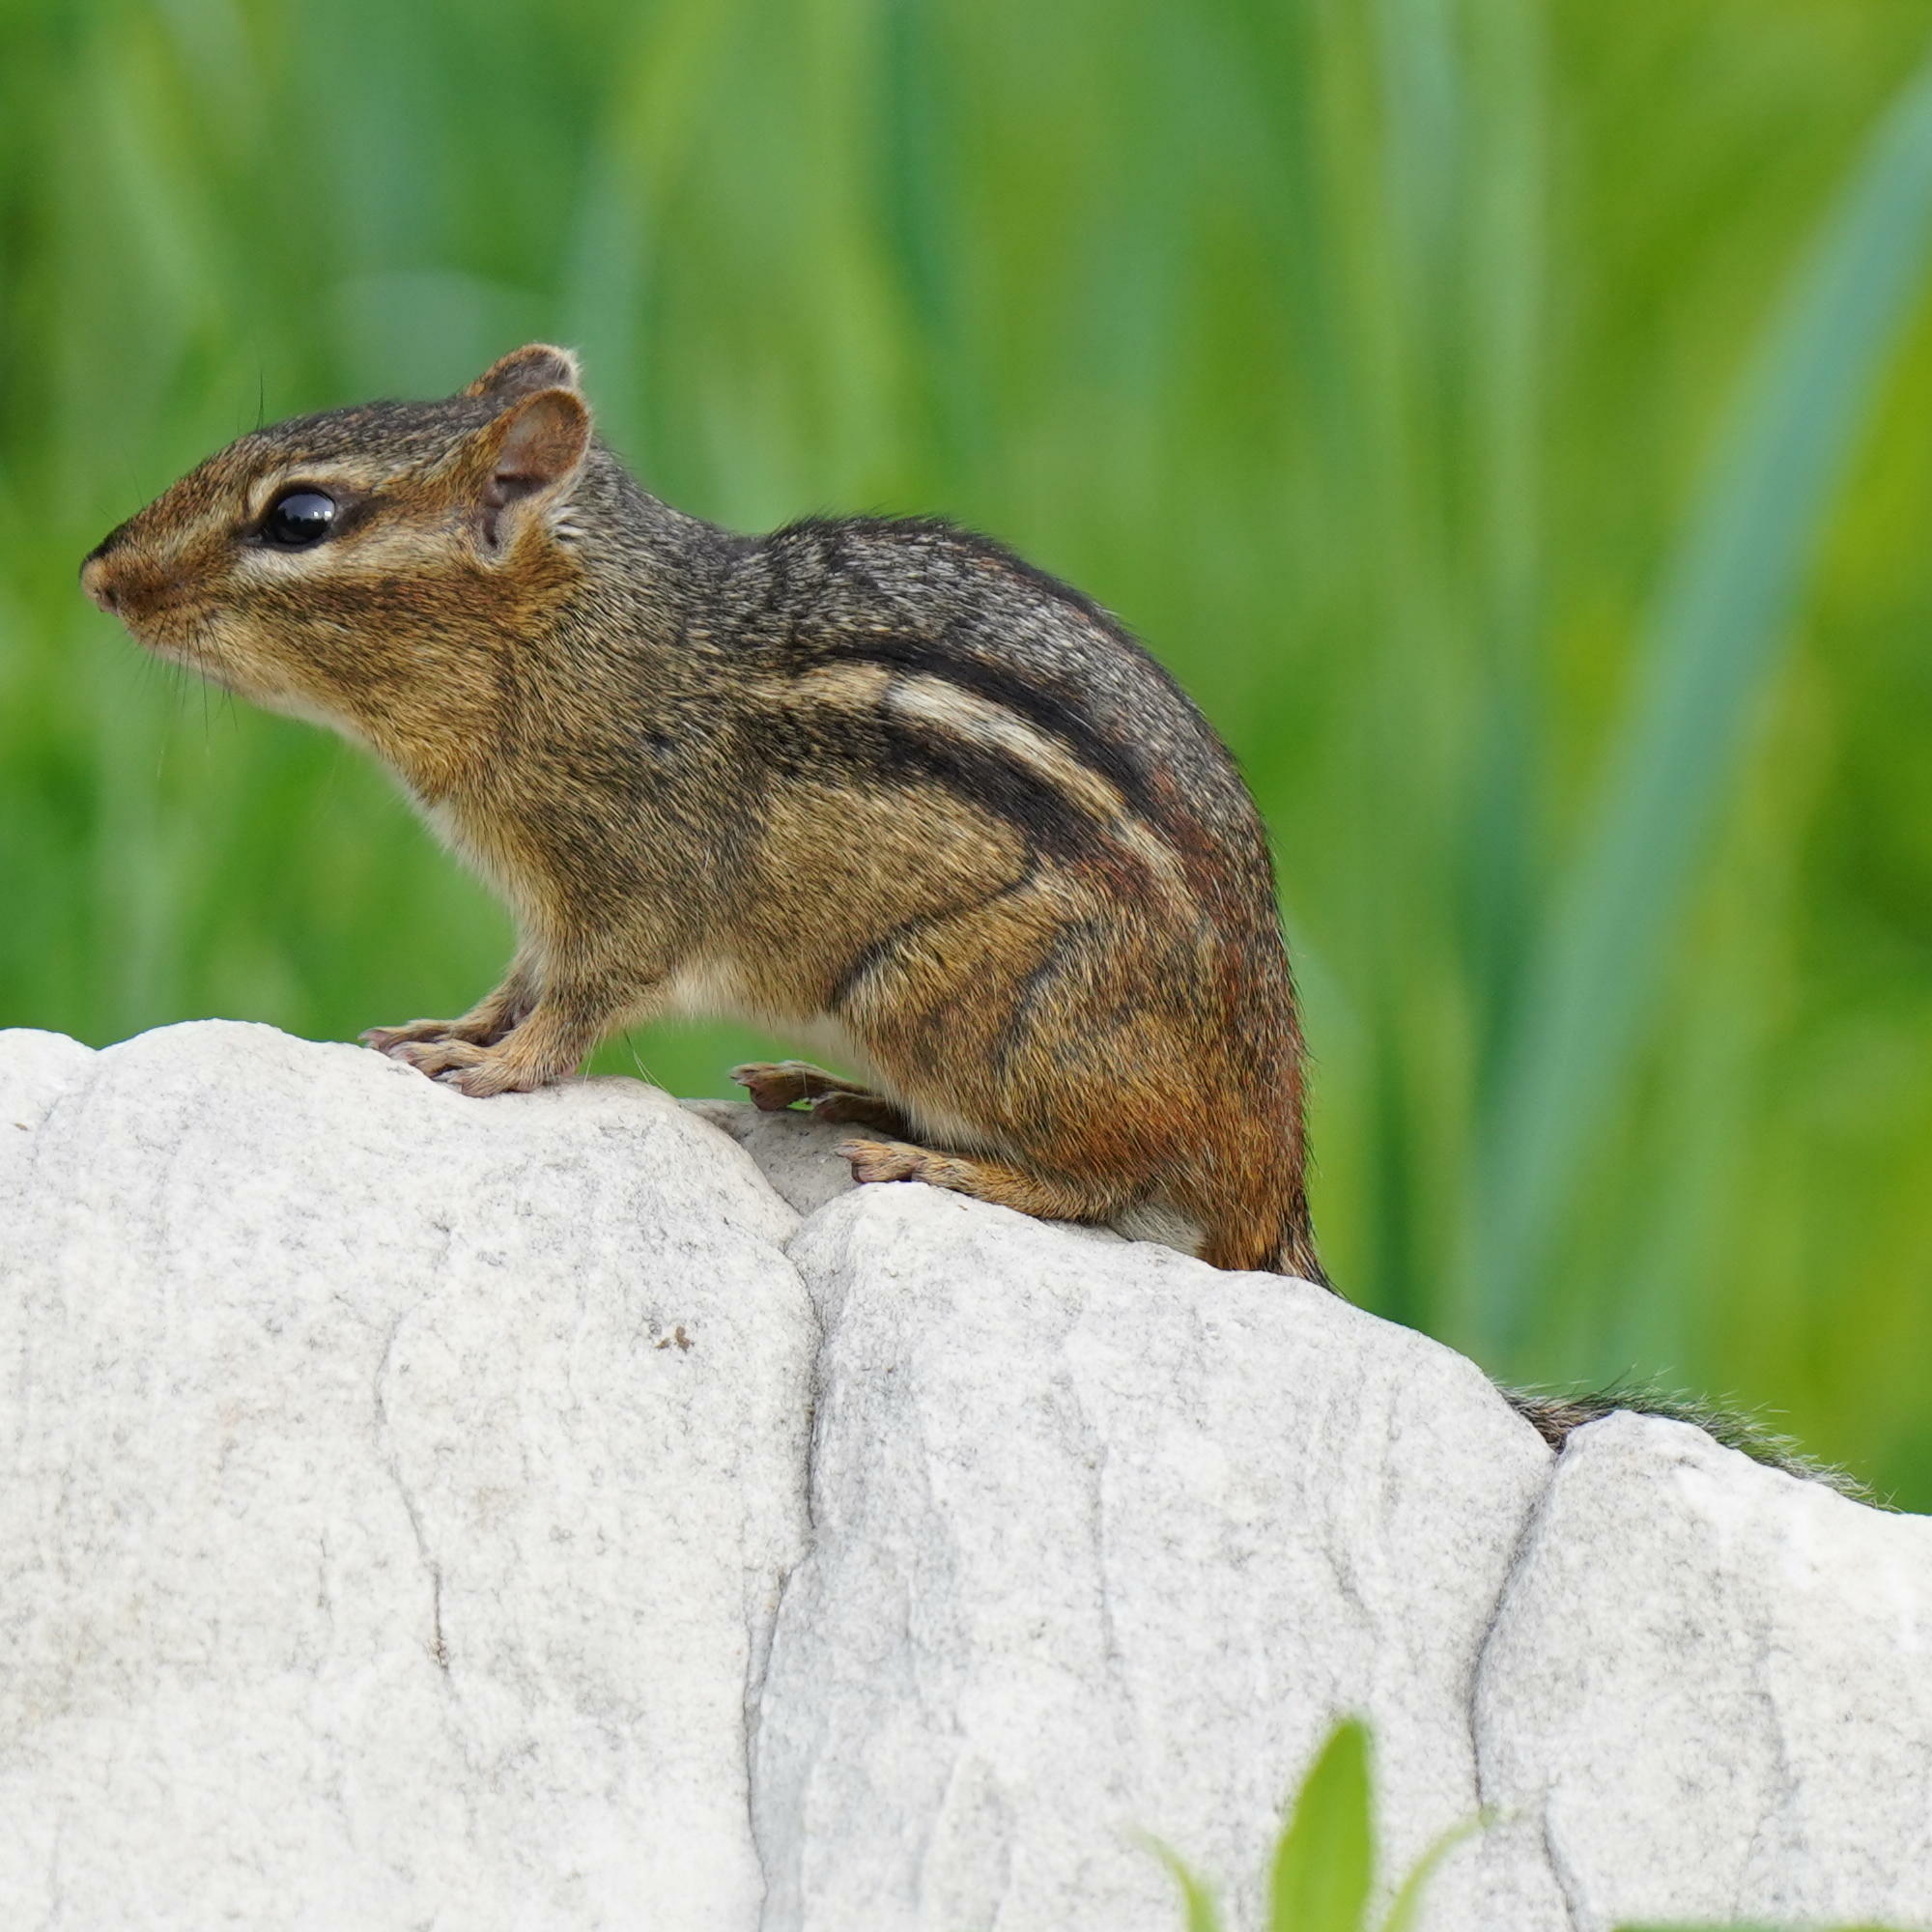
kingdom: Animalia
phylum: Chordata
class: Mammalia
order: Rodentia
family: Sciuridae
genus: Tamias
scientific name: Tamias striatus
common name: Eastern chipmunk
